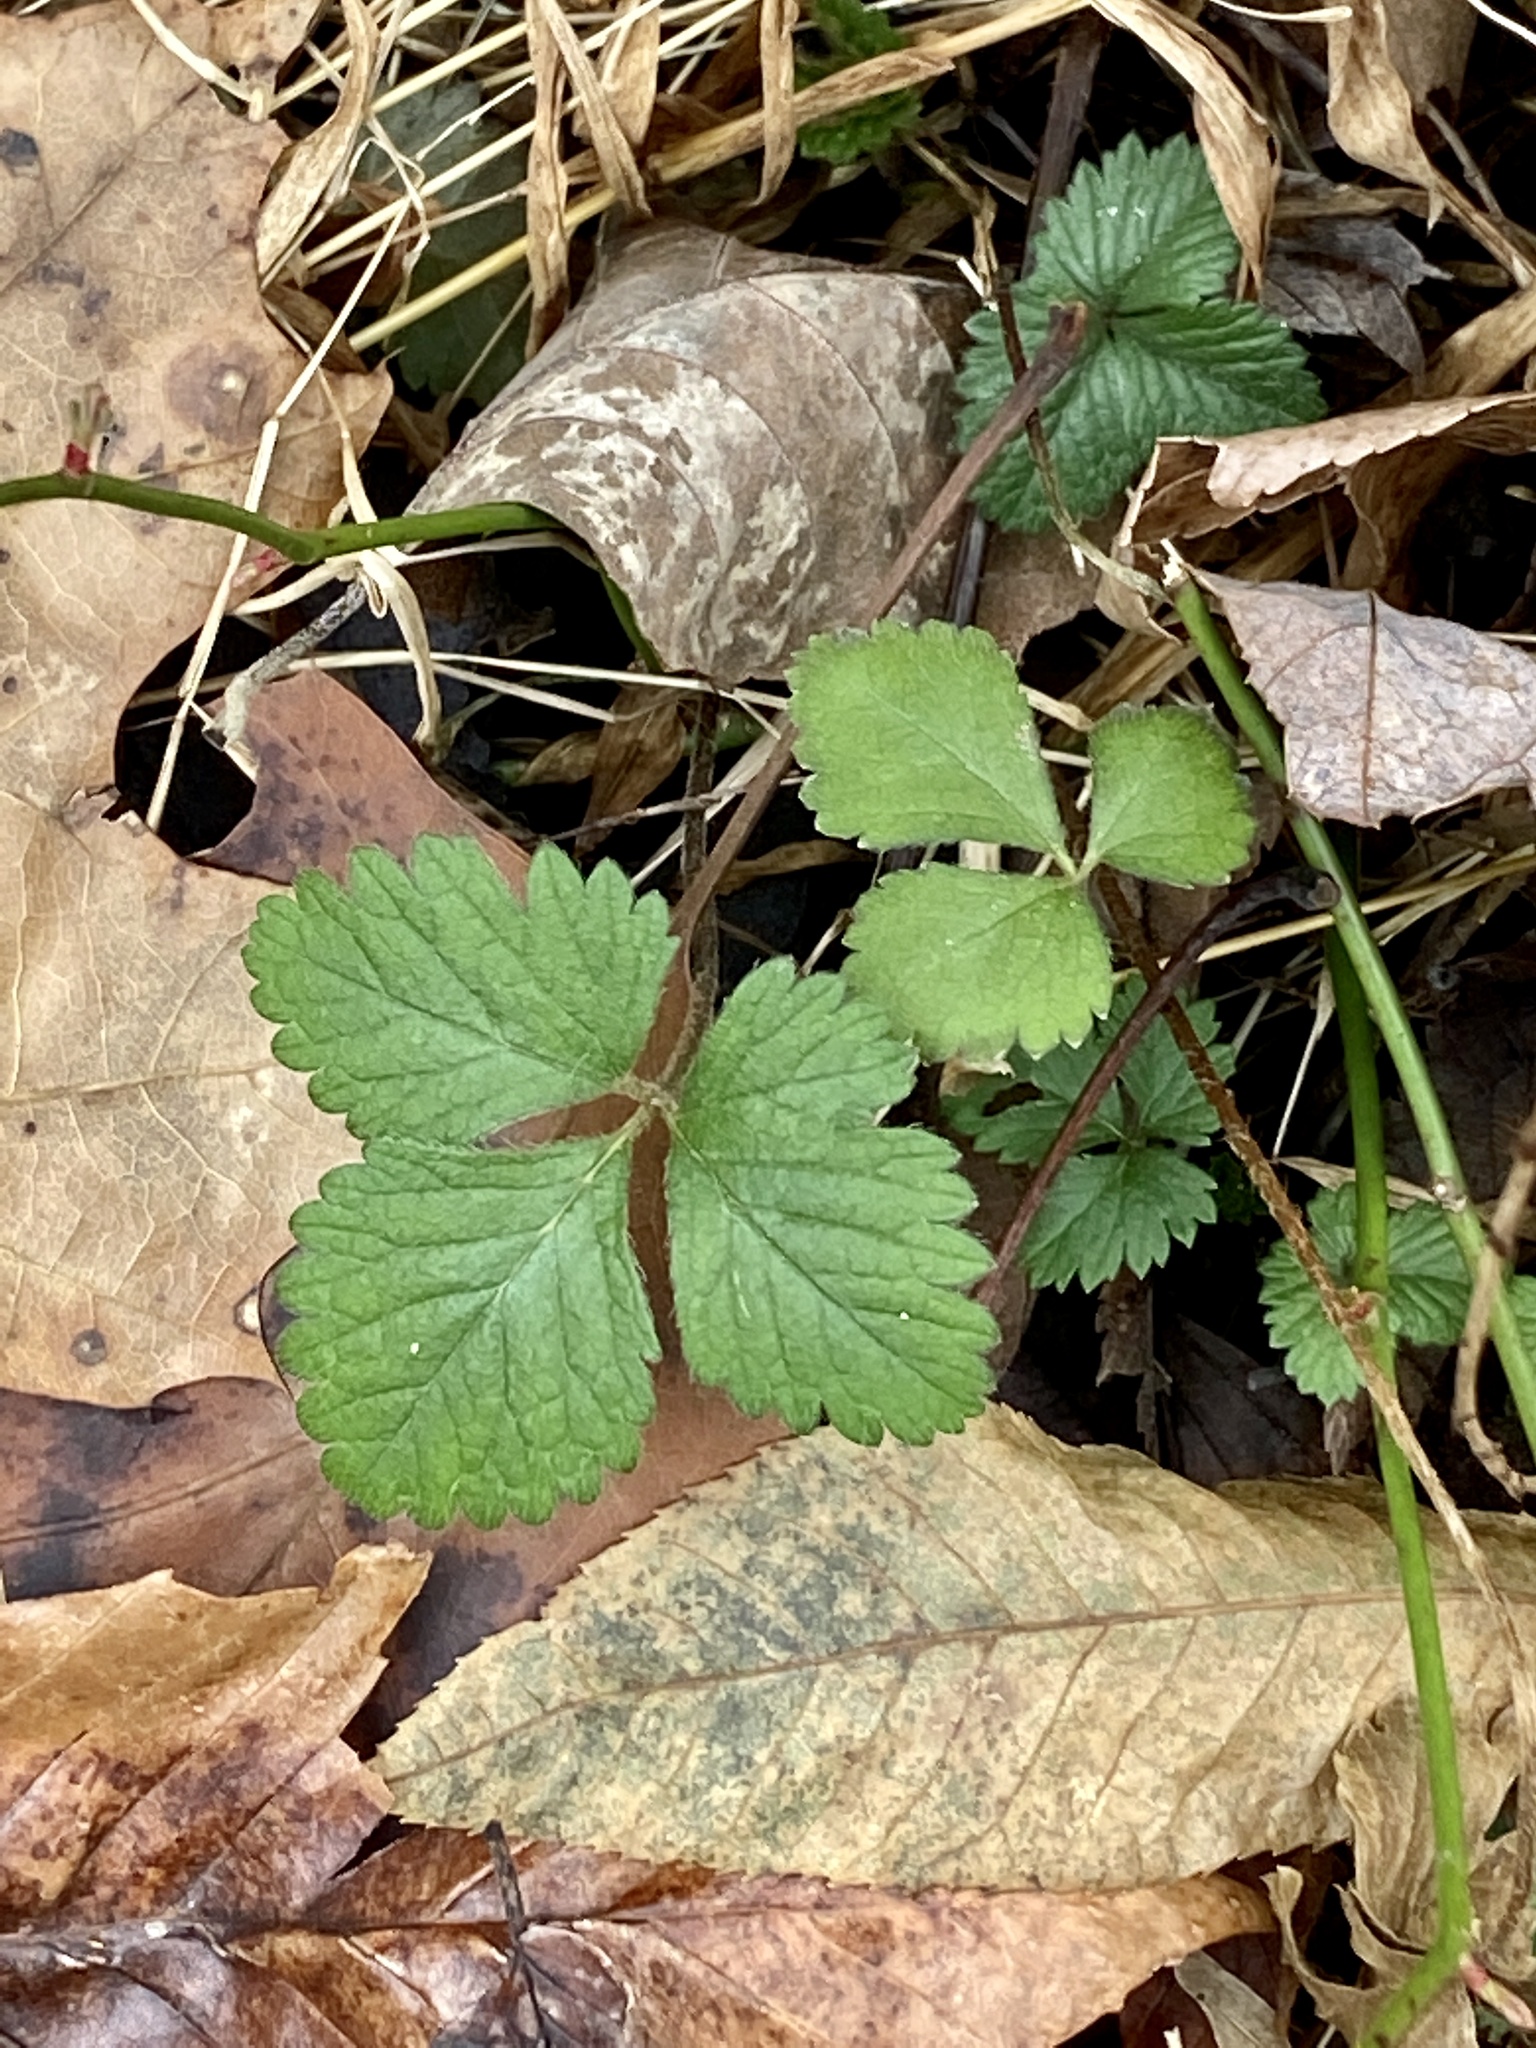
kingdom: Plantae
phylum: Tracheophyta
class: Magnoliopsida
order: Rosales
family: Rosaceae
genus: Potentilla
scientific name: Potentilla indica
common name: Yellow-flowered strawberry
